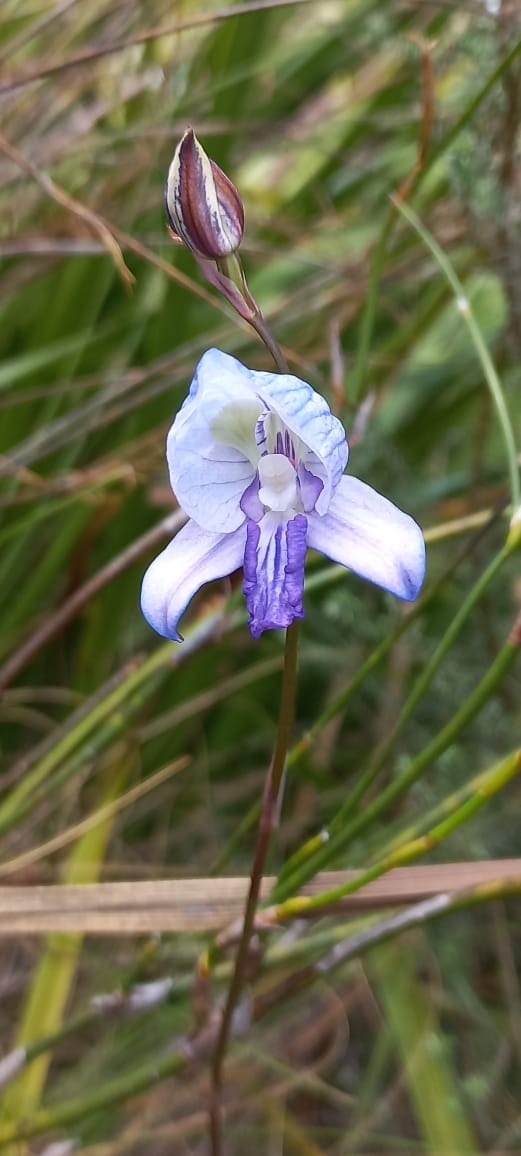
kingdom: Plantae
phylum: Tracheophyta
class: Liliopsida
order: Asparagales
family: Orchidaceae
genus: Disa
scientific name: Disa purpurascens
